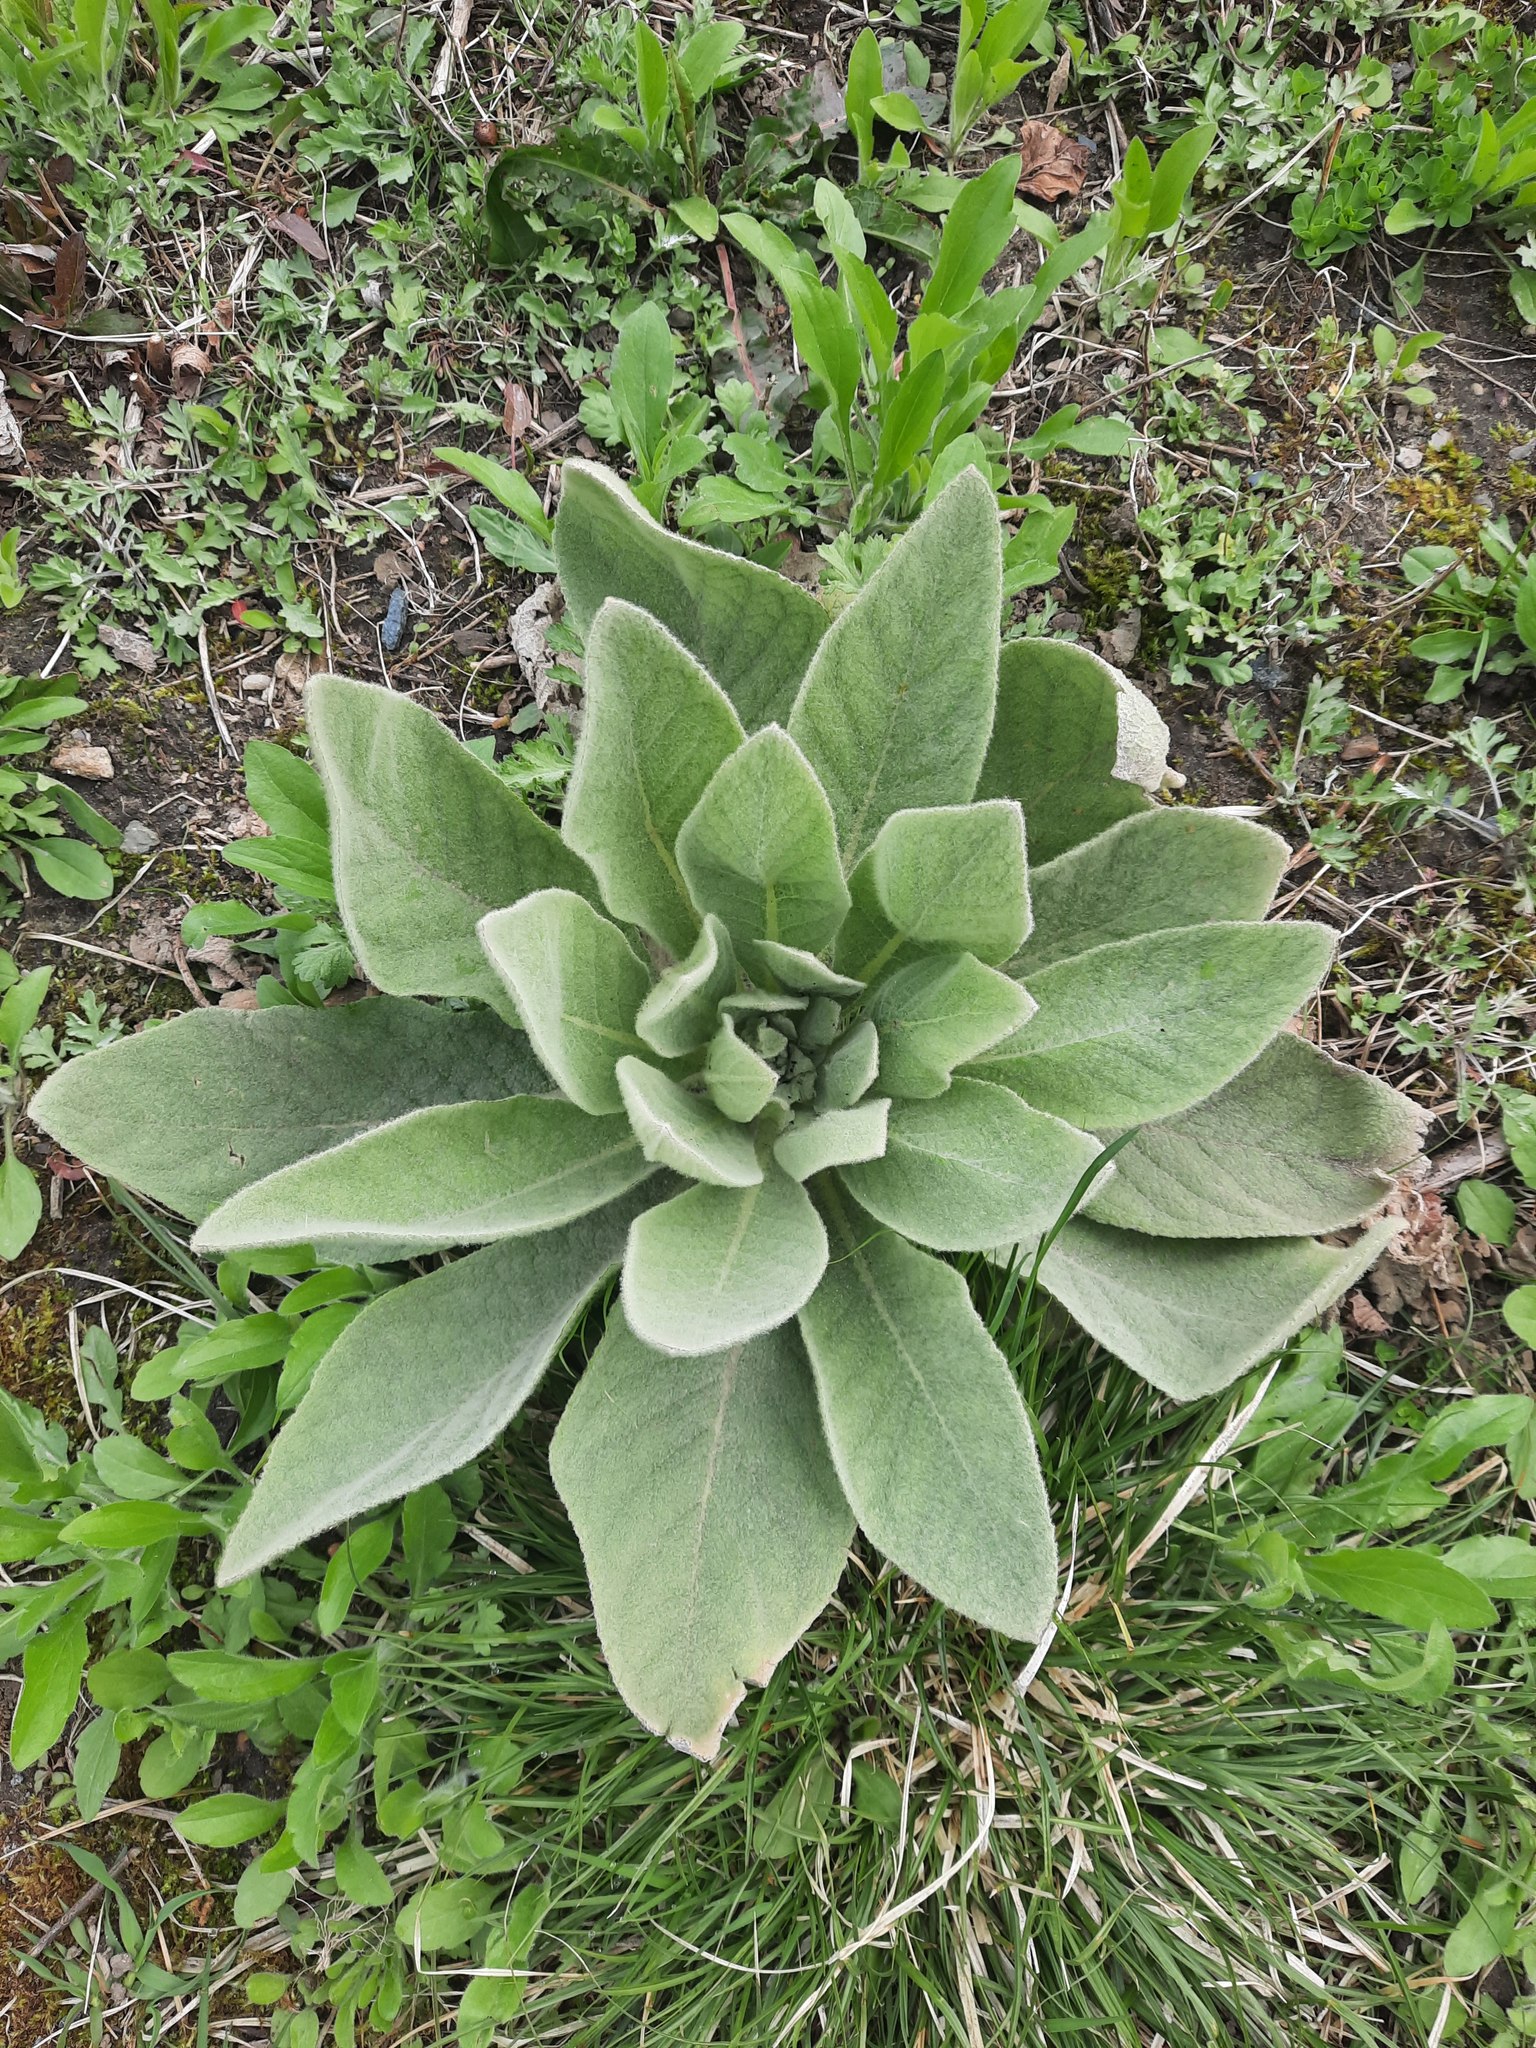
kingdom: Plantae
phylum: Tracheophyta
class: Magnoliopsida
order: Lamiales
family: Scrophulariaceae
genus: Verbascum
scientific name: Verbascum thapsus
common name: Common mullein
